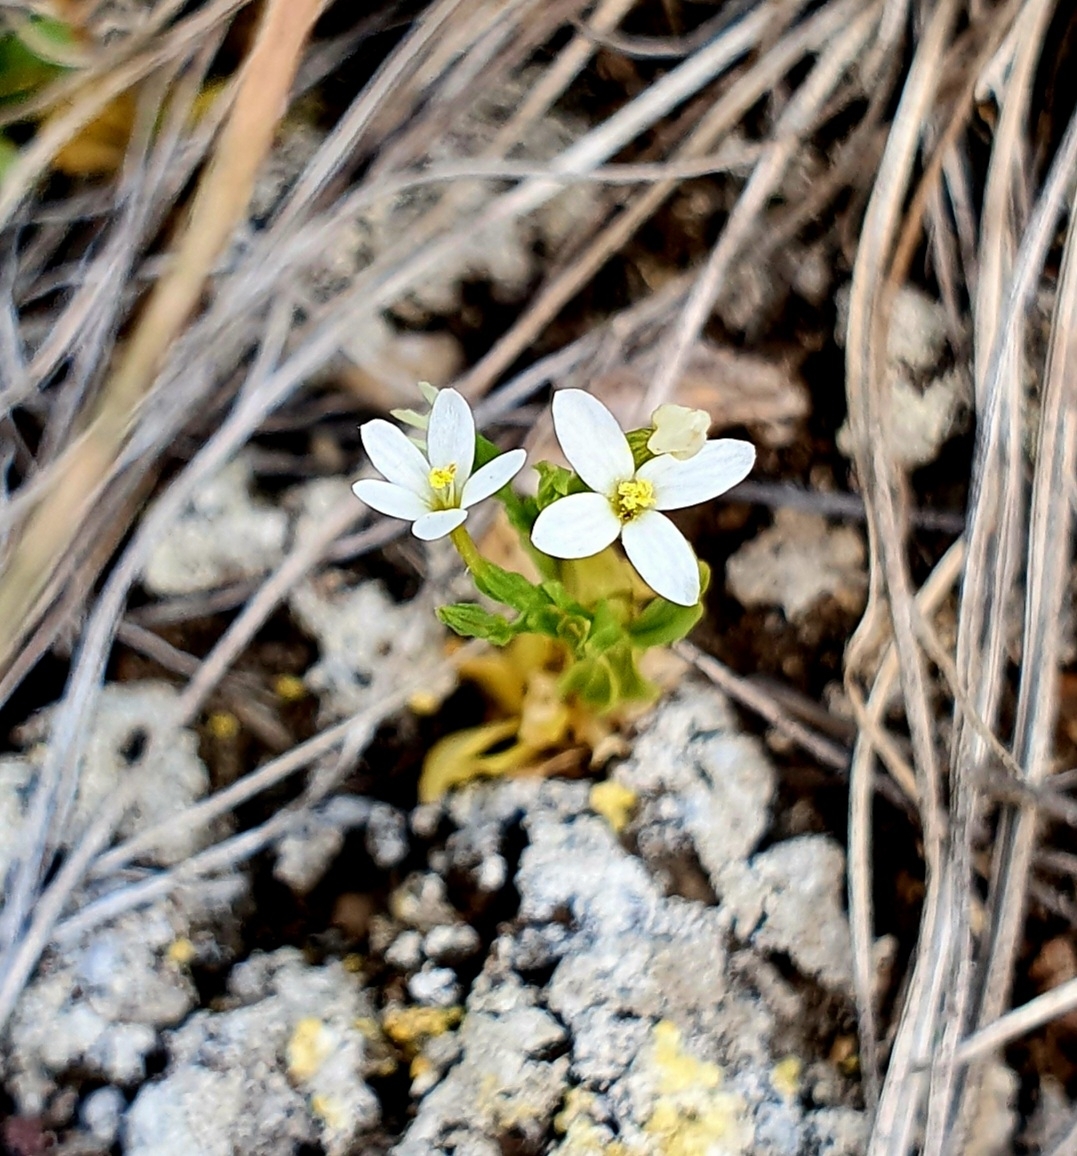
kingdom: Plantae
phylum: Tracheophyta
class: Magnoliopsida
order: Gentianales
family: Gentianaceae
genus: Centaurium
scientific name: Centaurium pulchellum
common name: Lesser centaury
